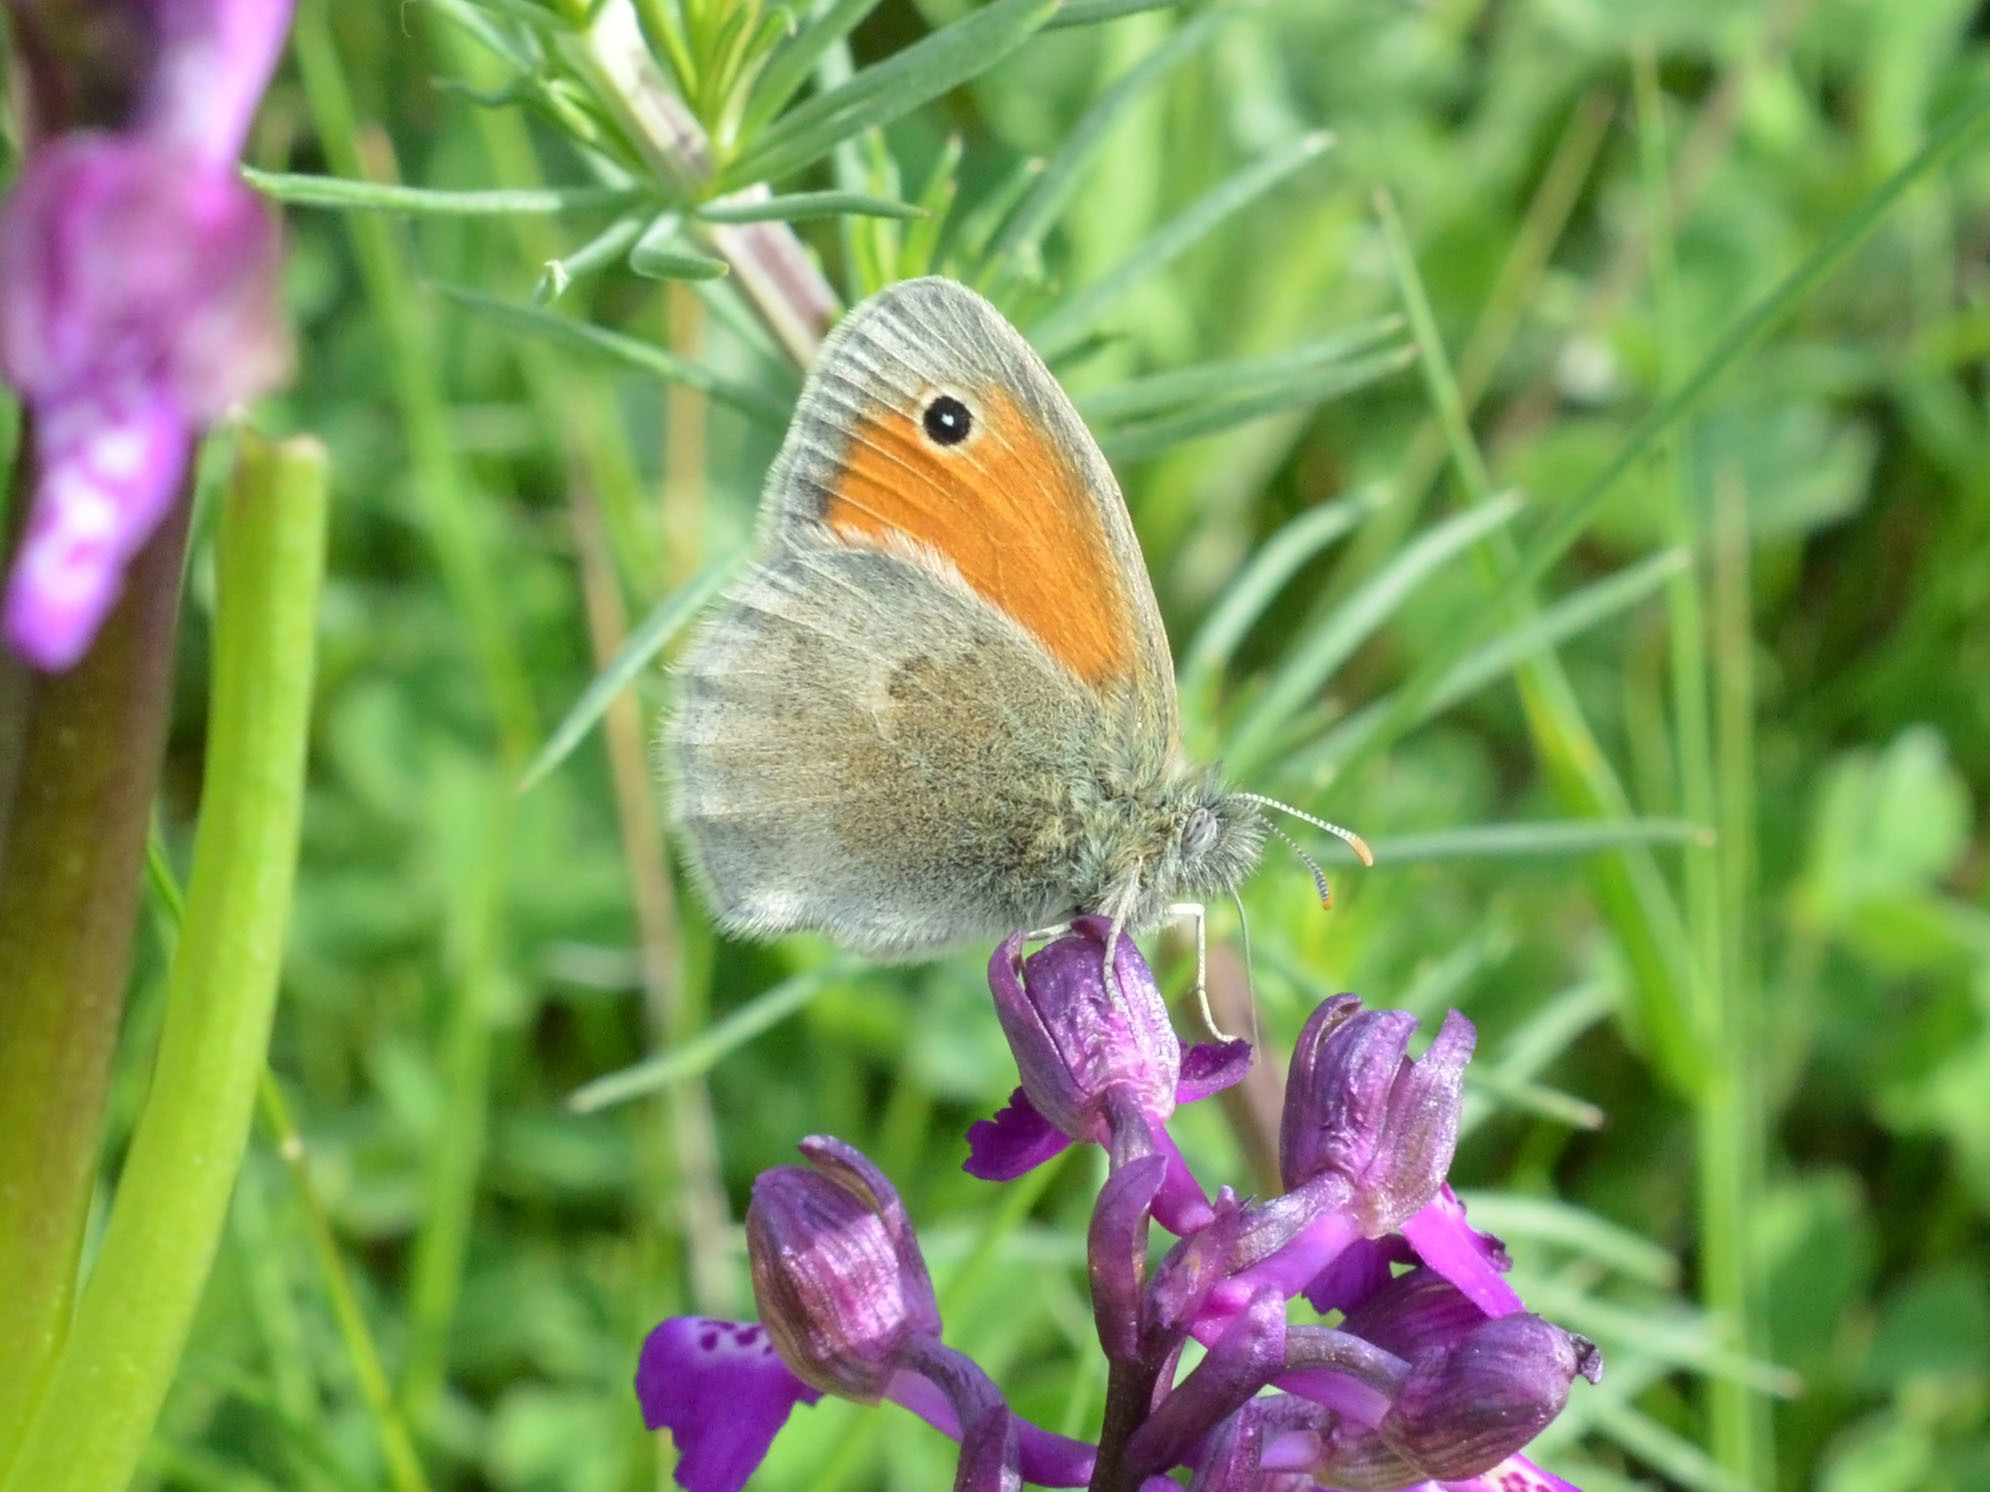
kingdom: Animalia
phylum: Arthropoda
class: Insecta
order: Lepidoptera
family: Nymphalidae
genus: Coenonympha
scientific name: Coenonympha pamphilus
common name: Small heath
